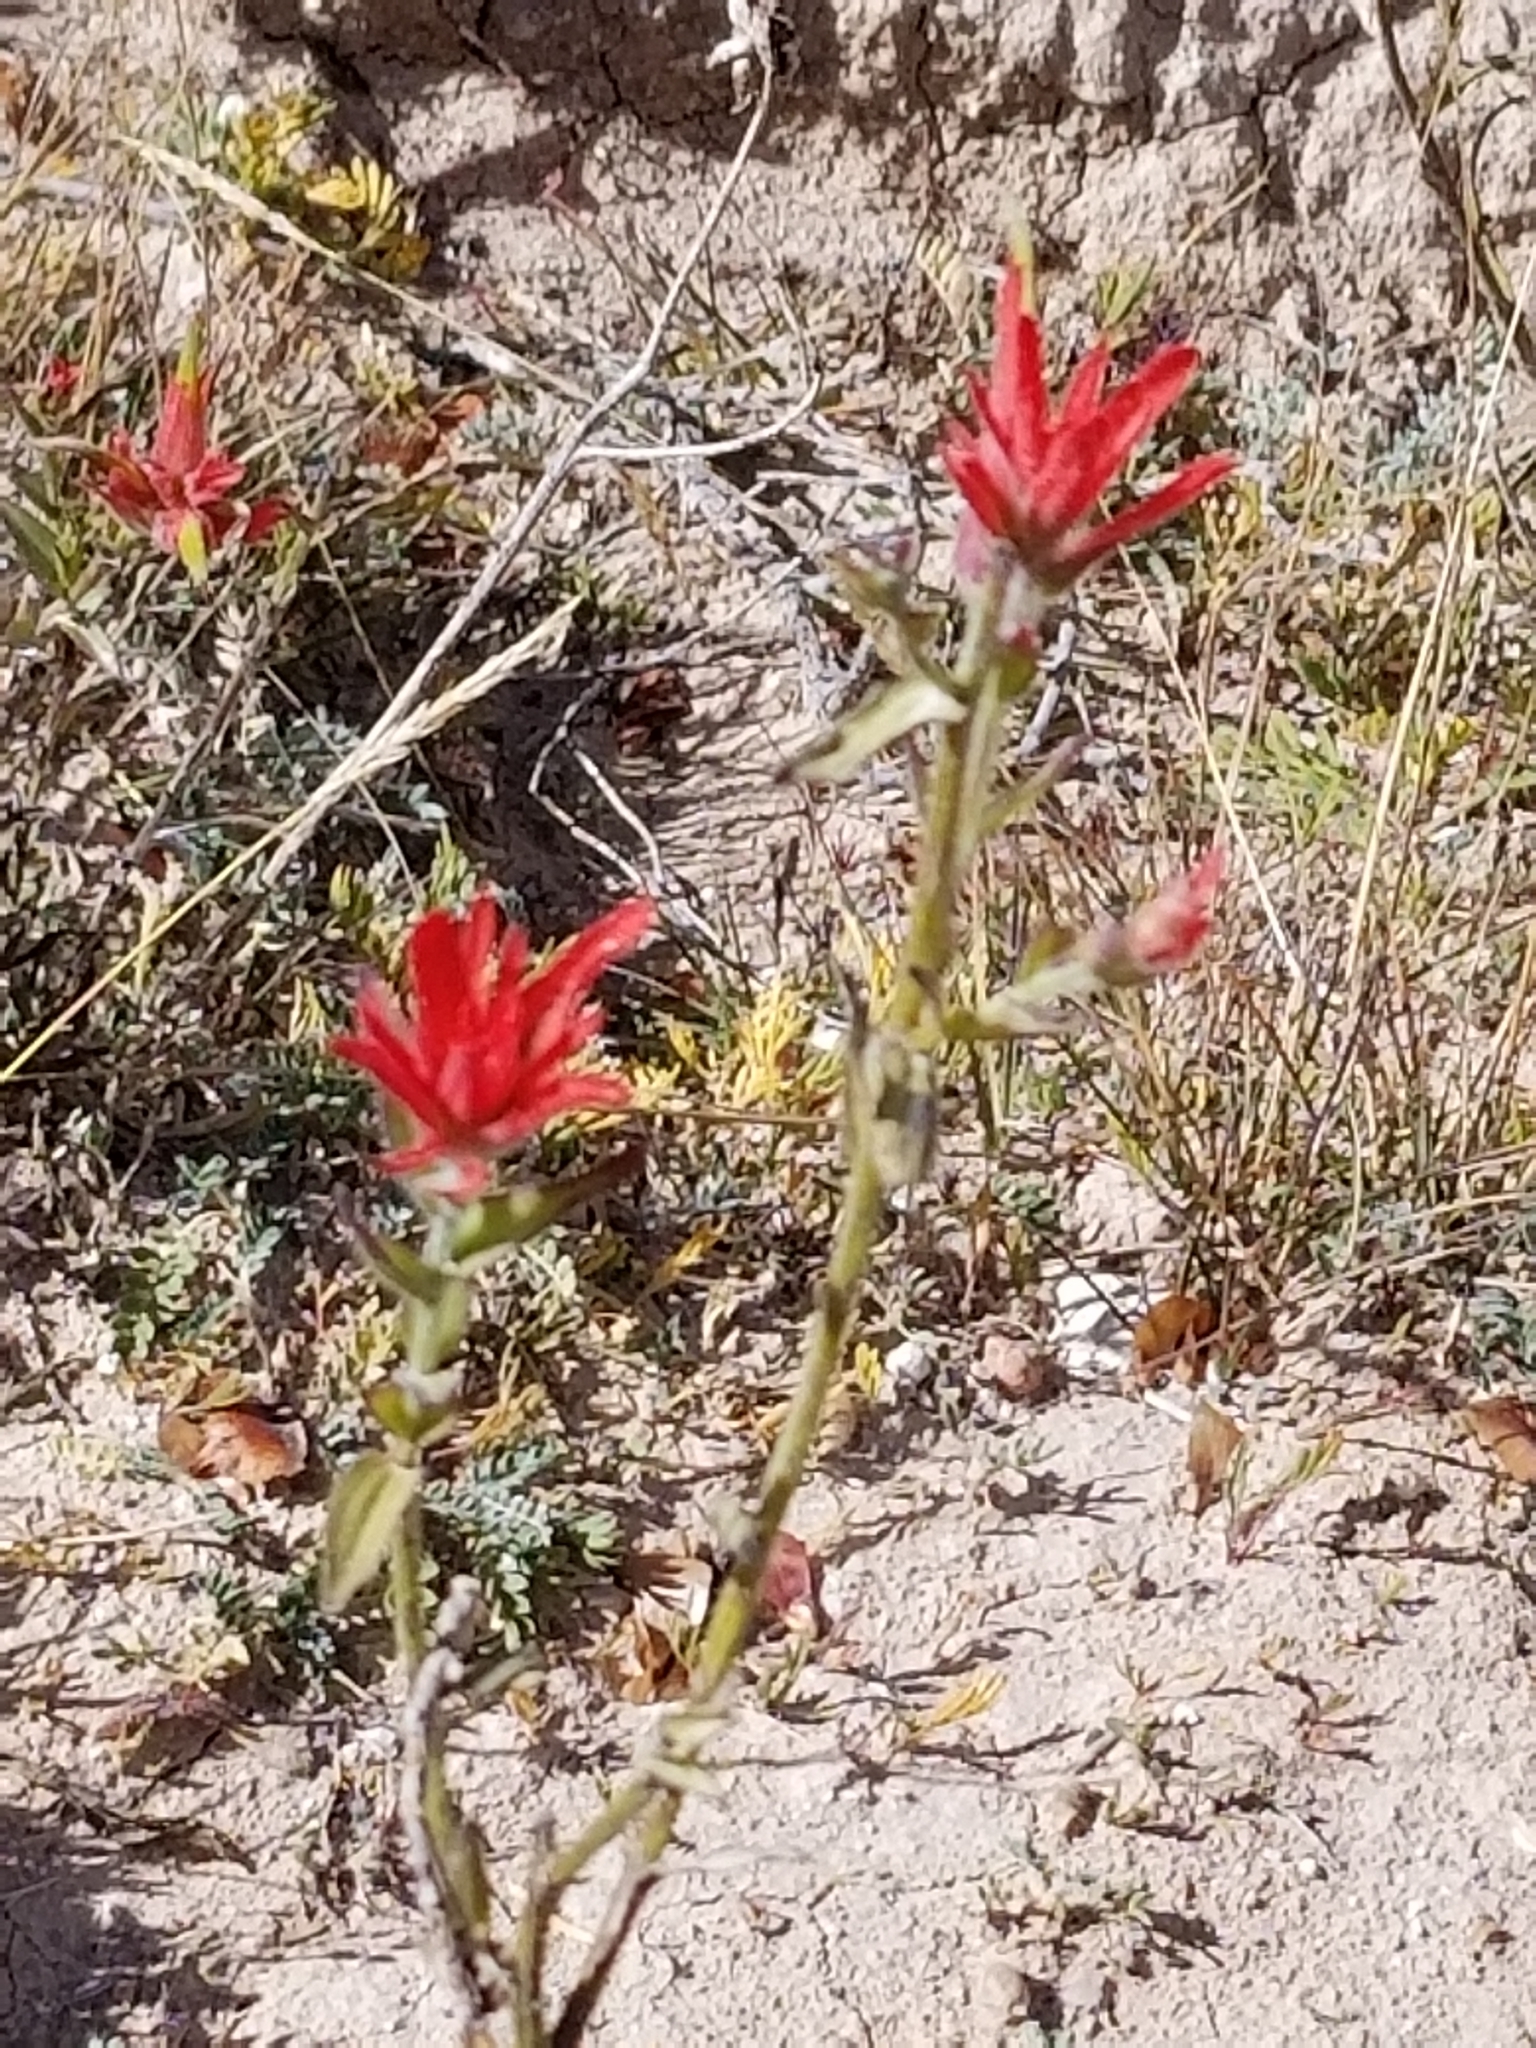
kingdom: Plantae
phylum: Tracheophyta
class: Magnoliopsida
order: Lamiales
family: Orobanchaceae
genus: Castilleja
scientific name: Castilleja linariifolia
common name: Wyoming paintbrush
